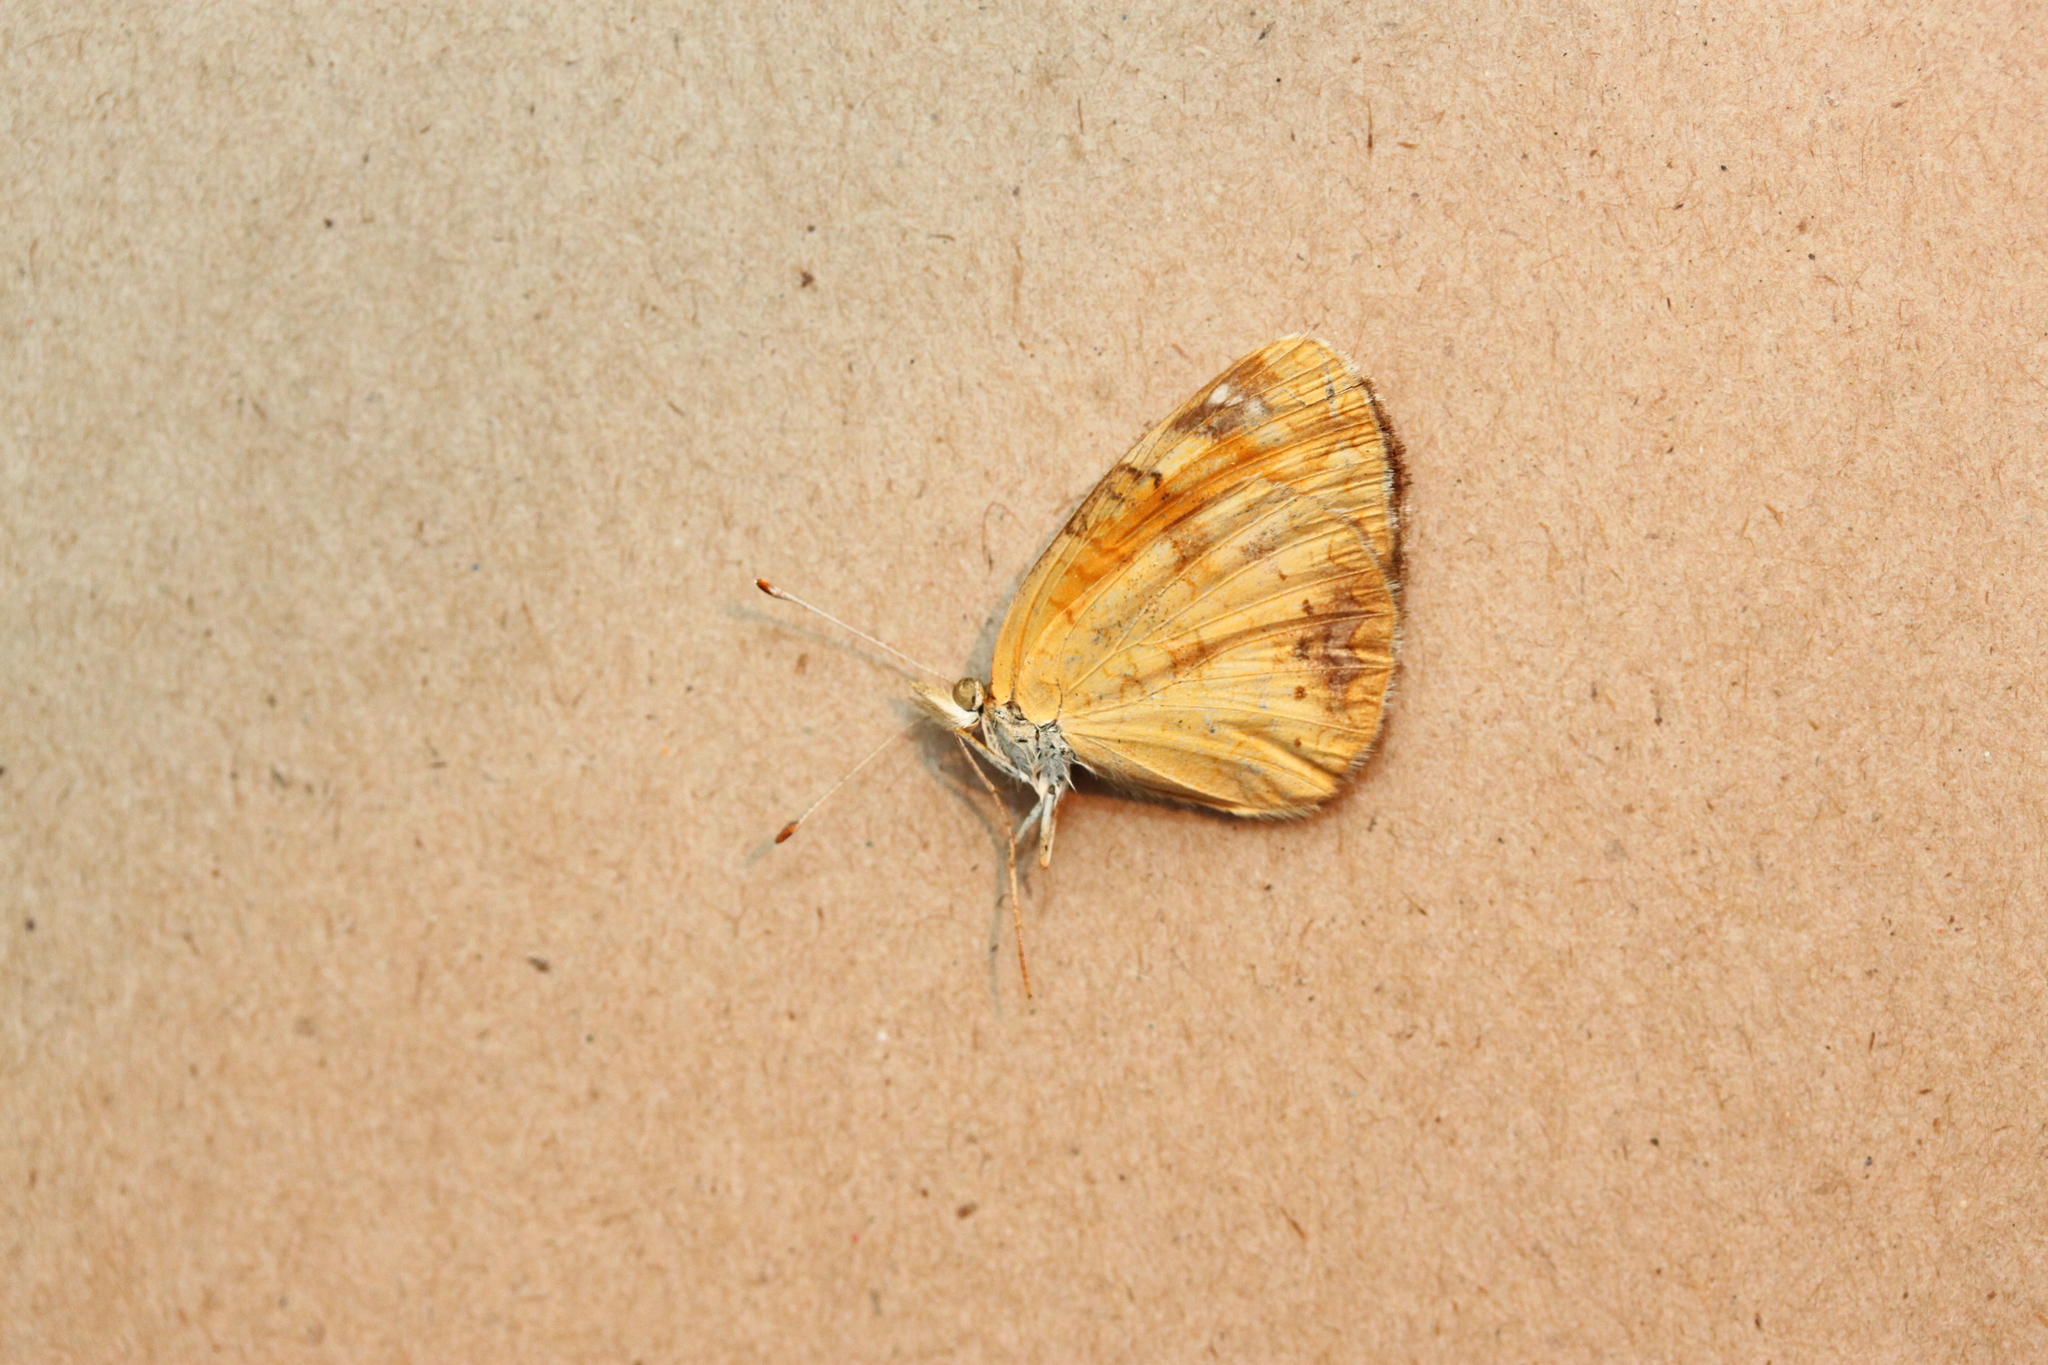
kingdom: Animalia
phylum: Arthropoda
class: Insecta
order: Lepidoptera
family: Nymphalidae
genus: Phyciodes
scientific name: Phyciodes tharos
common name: Pearl crescent
